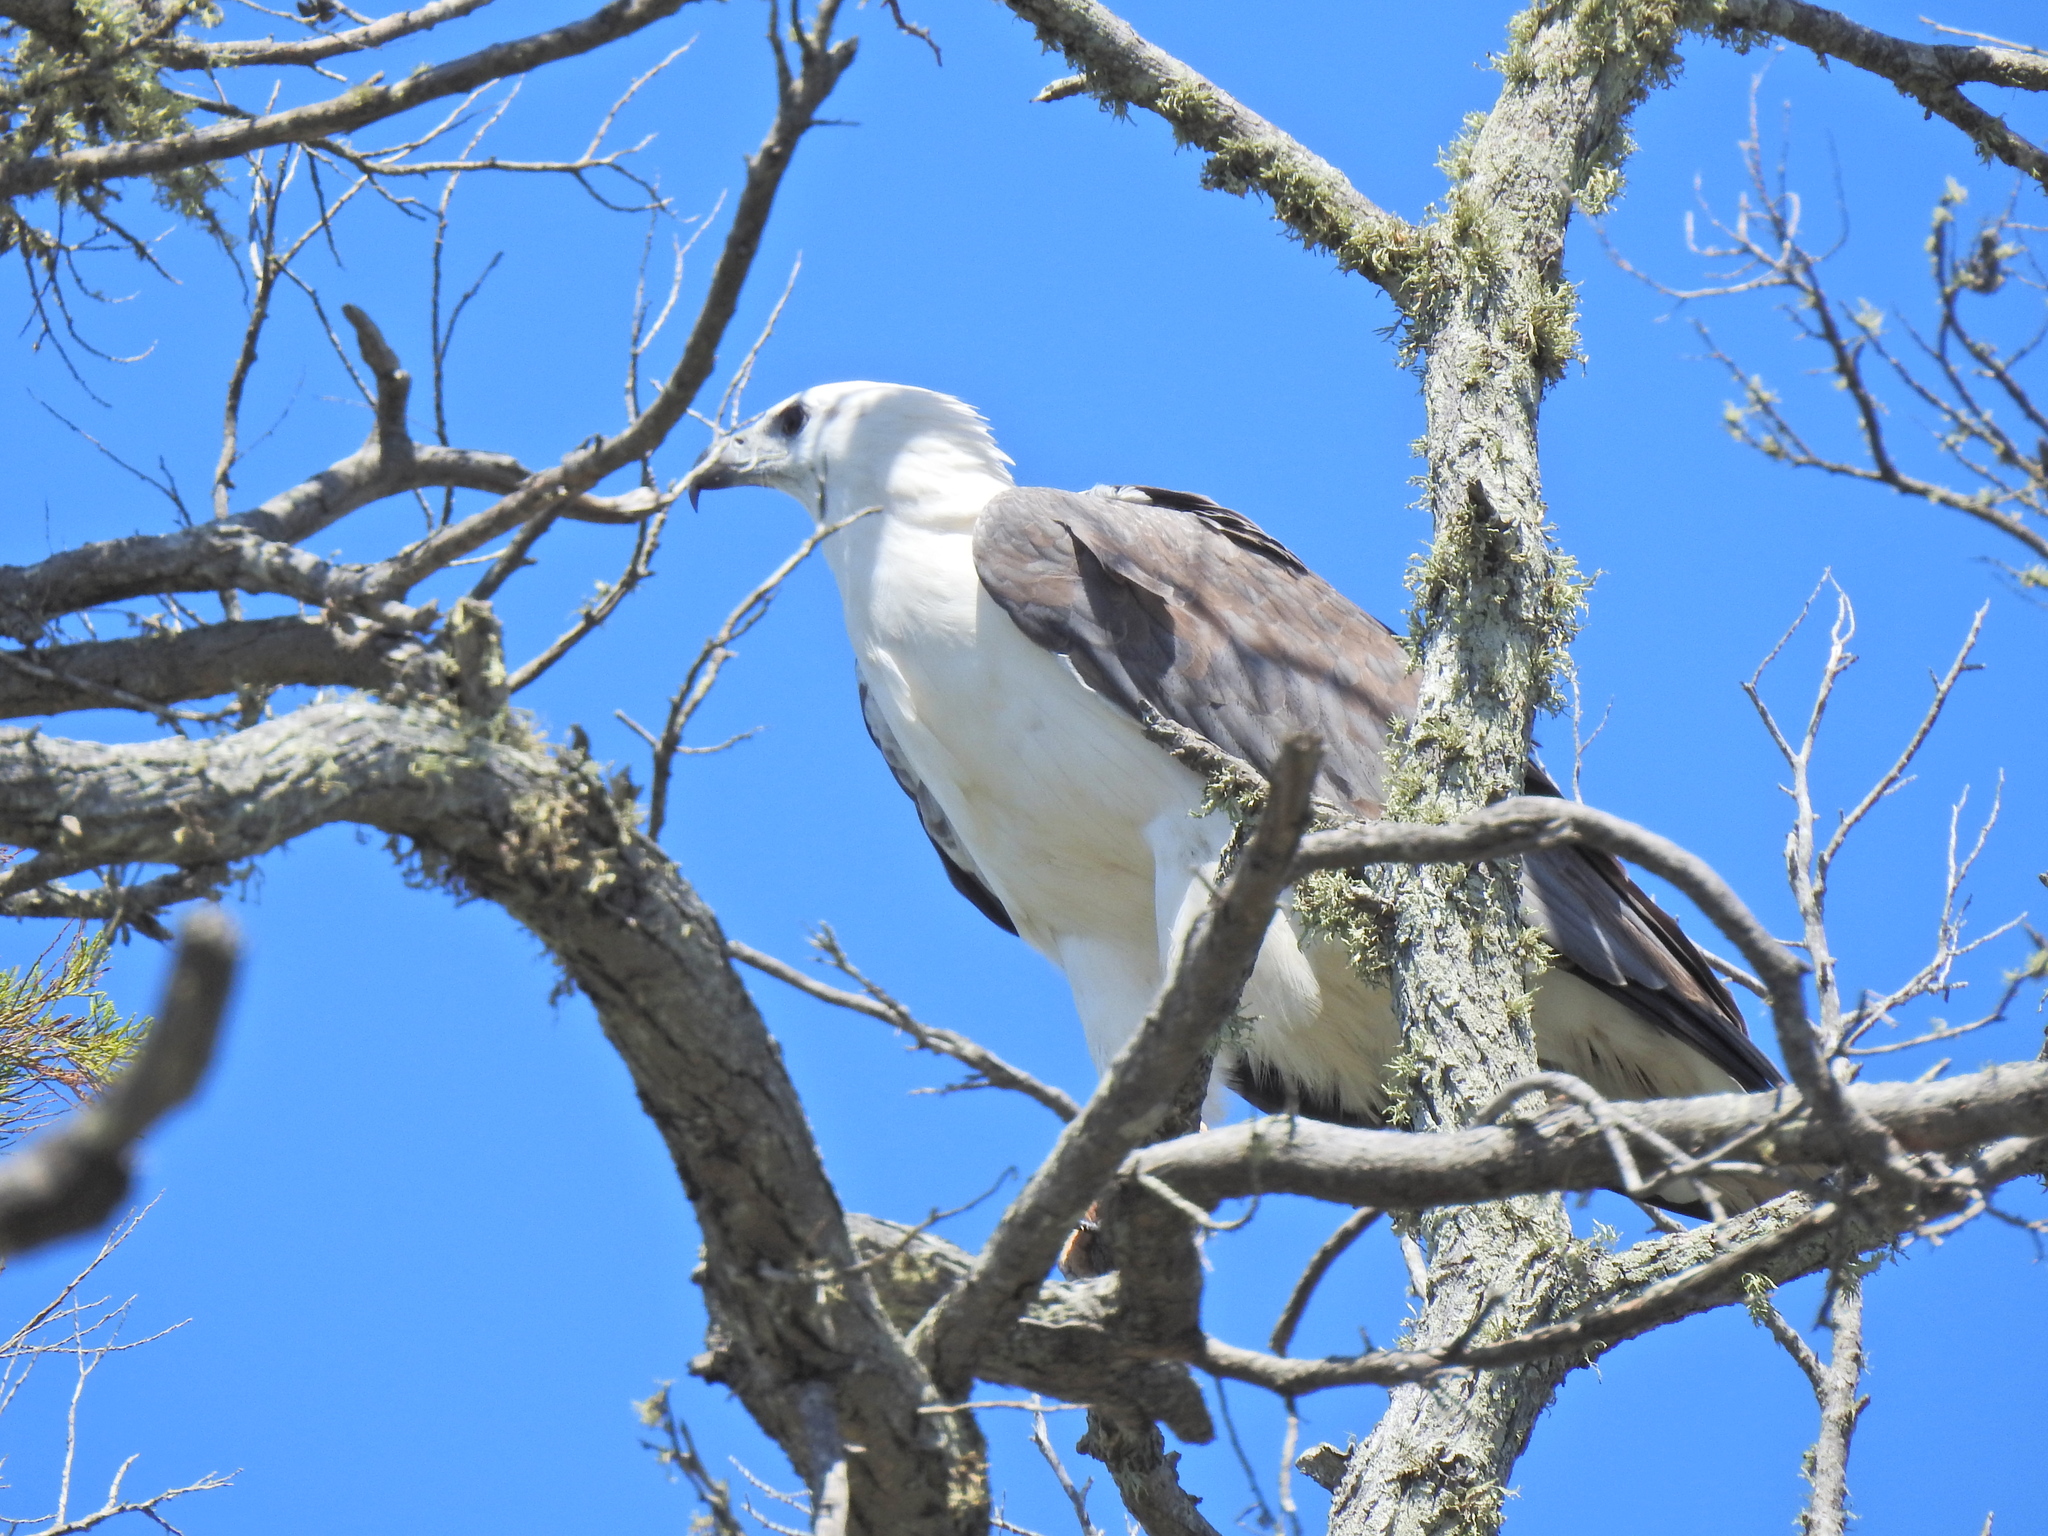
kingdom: Animalia
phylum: Chordata
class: Aves
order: Accipitriformes
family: Accipitridae
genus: Haliaeetus
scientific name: Haliaeetus leucogaster
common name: White-bellied sea eagle
